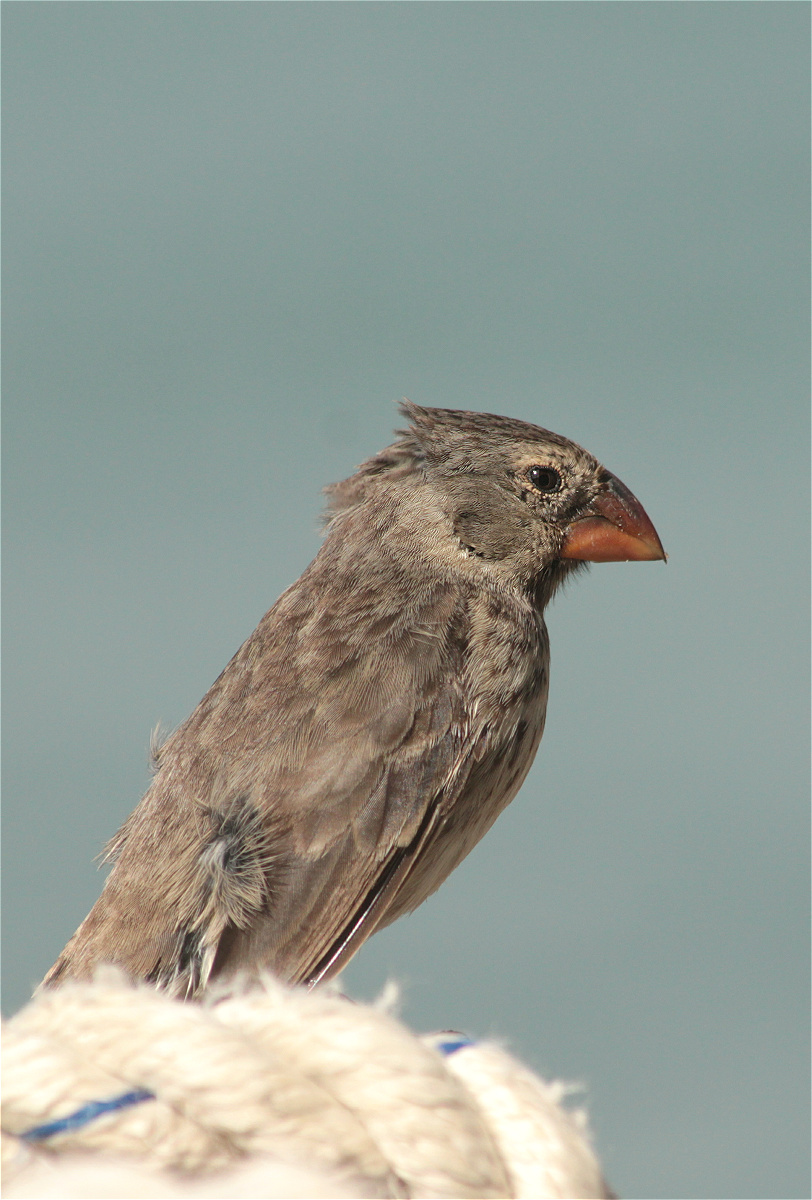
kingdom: Animalia
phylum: Chordata
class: Aves
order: Passeriformes
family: Thraupidae
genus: Geospiza
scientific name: Geospiza fortis
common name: Medium ground finch
